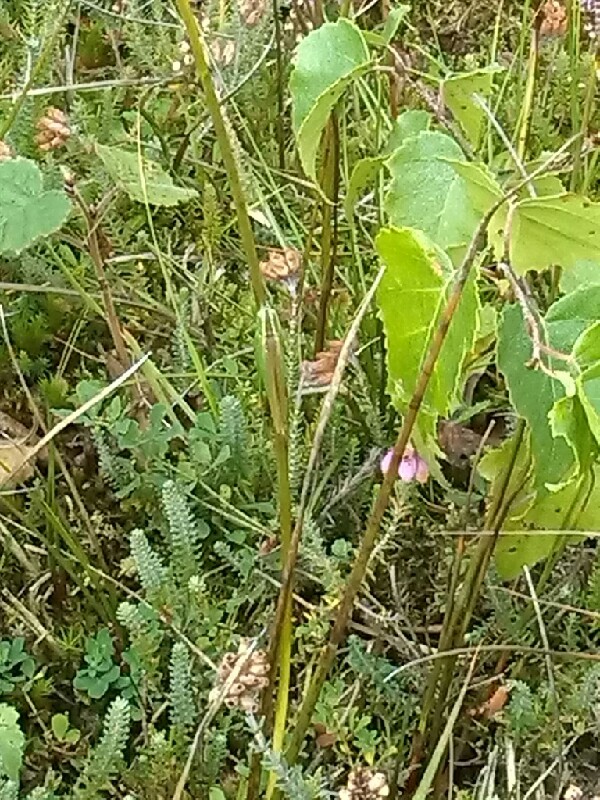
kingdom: Animalia
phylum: Arthropoda
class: Insecta
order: Orthoptera
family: Tettigoniidae
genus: Conocephalus
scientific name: Conocephalus fuscus
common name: Long-winged conehead
